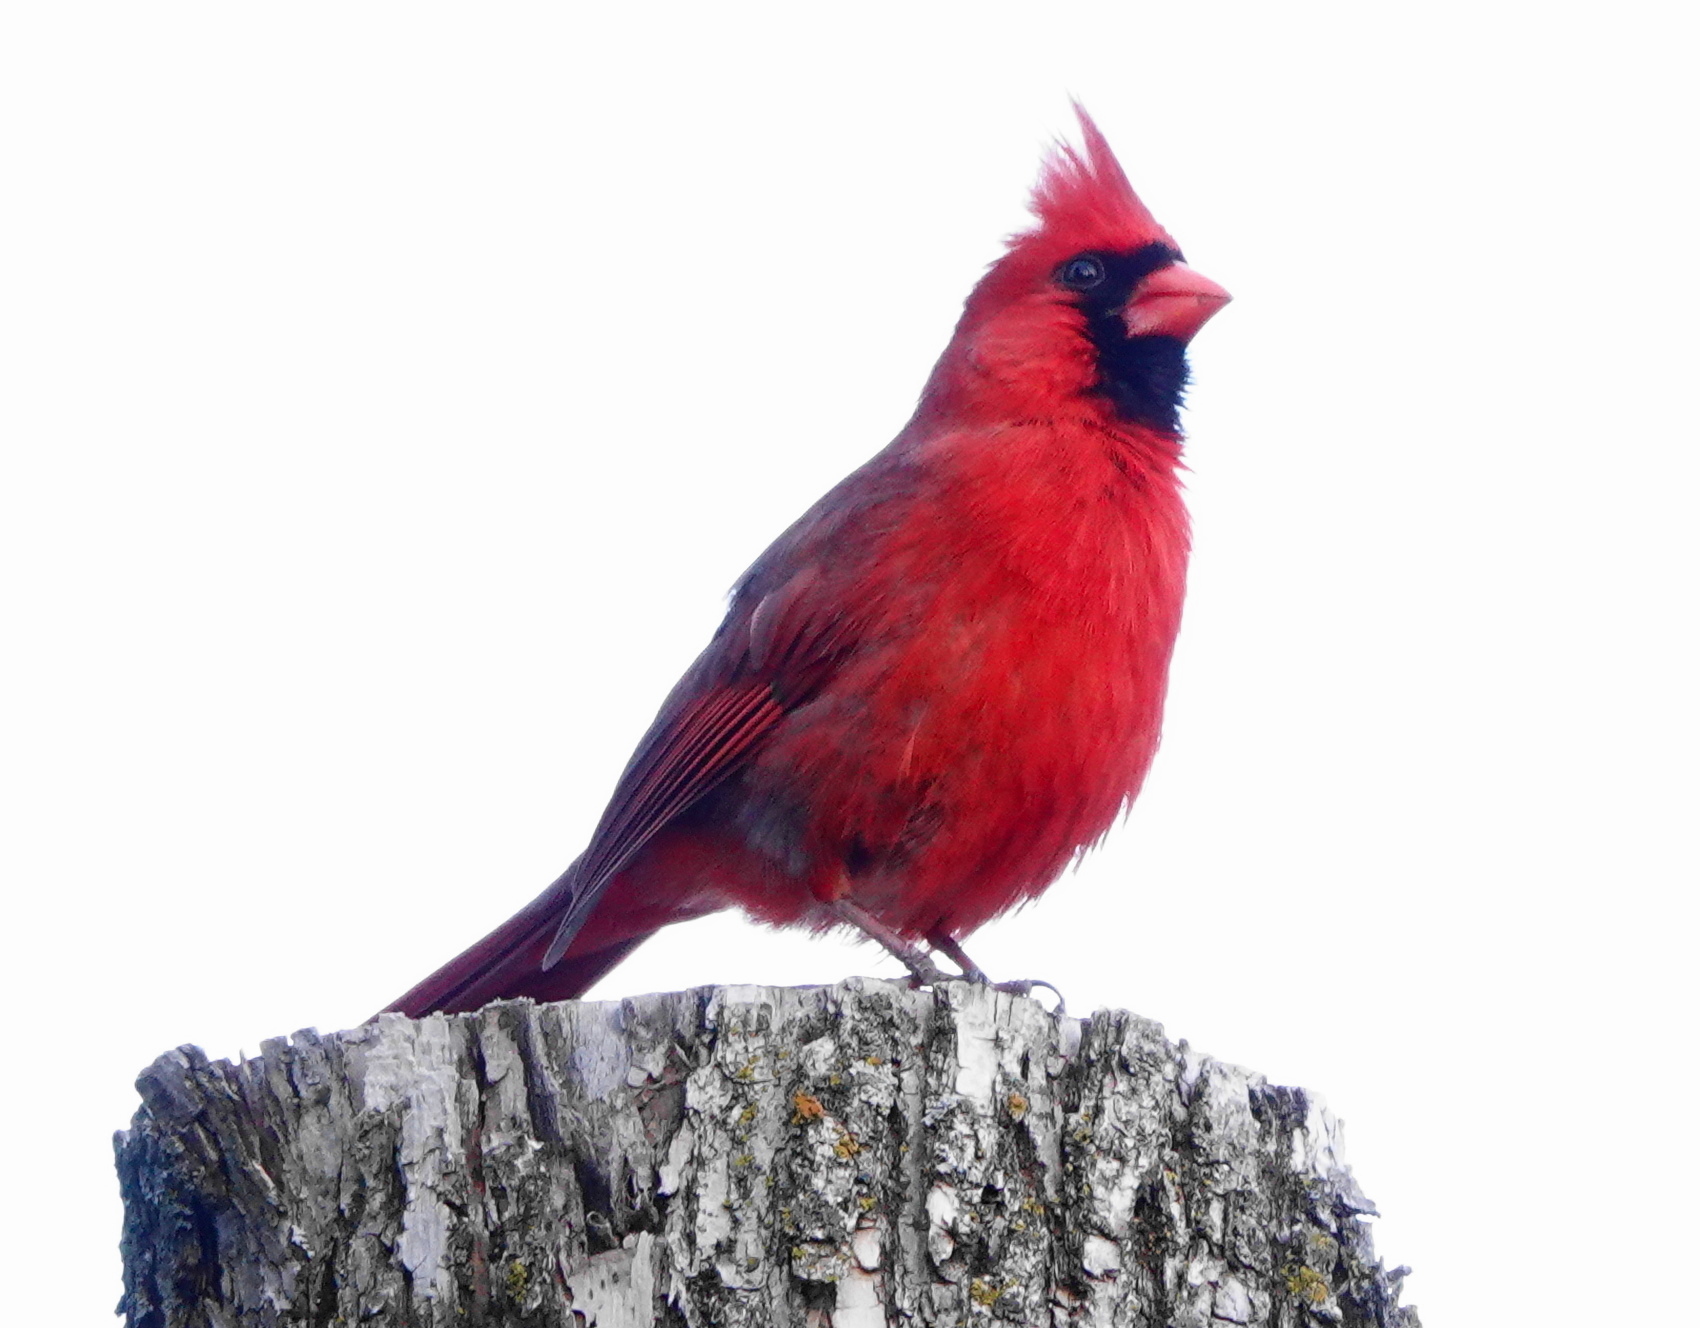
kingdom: Animalia
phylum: Chordata
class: Aves
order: Passeriformes
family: Cardinalidae
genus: Cardinalis
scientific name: Cardinalis cardinalis
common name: Northern cardinal
